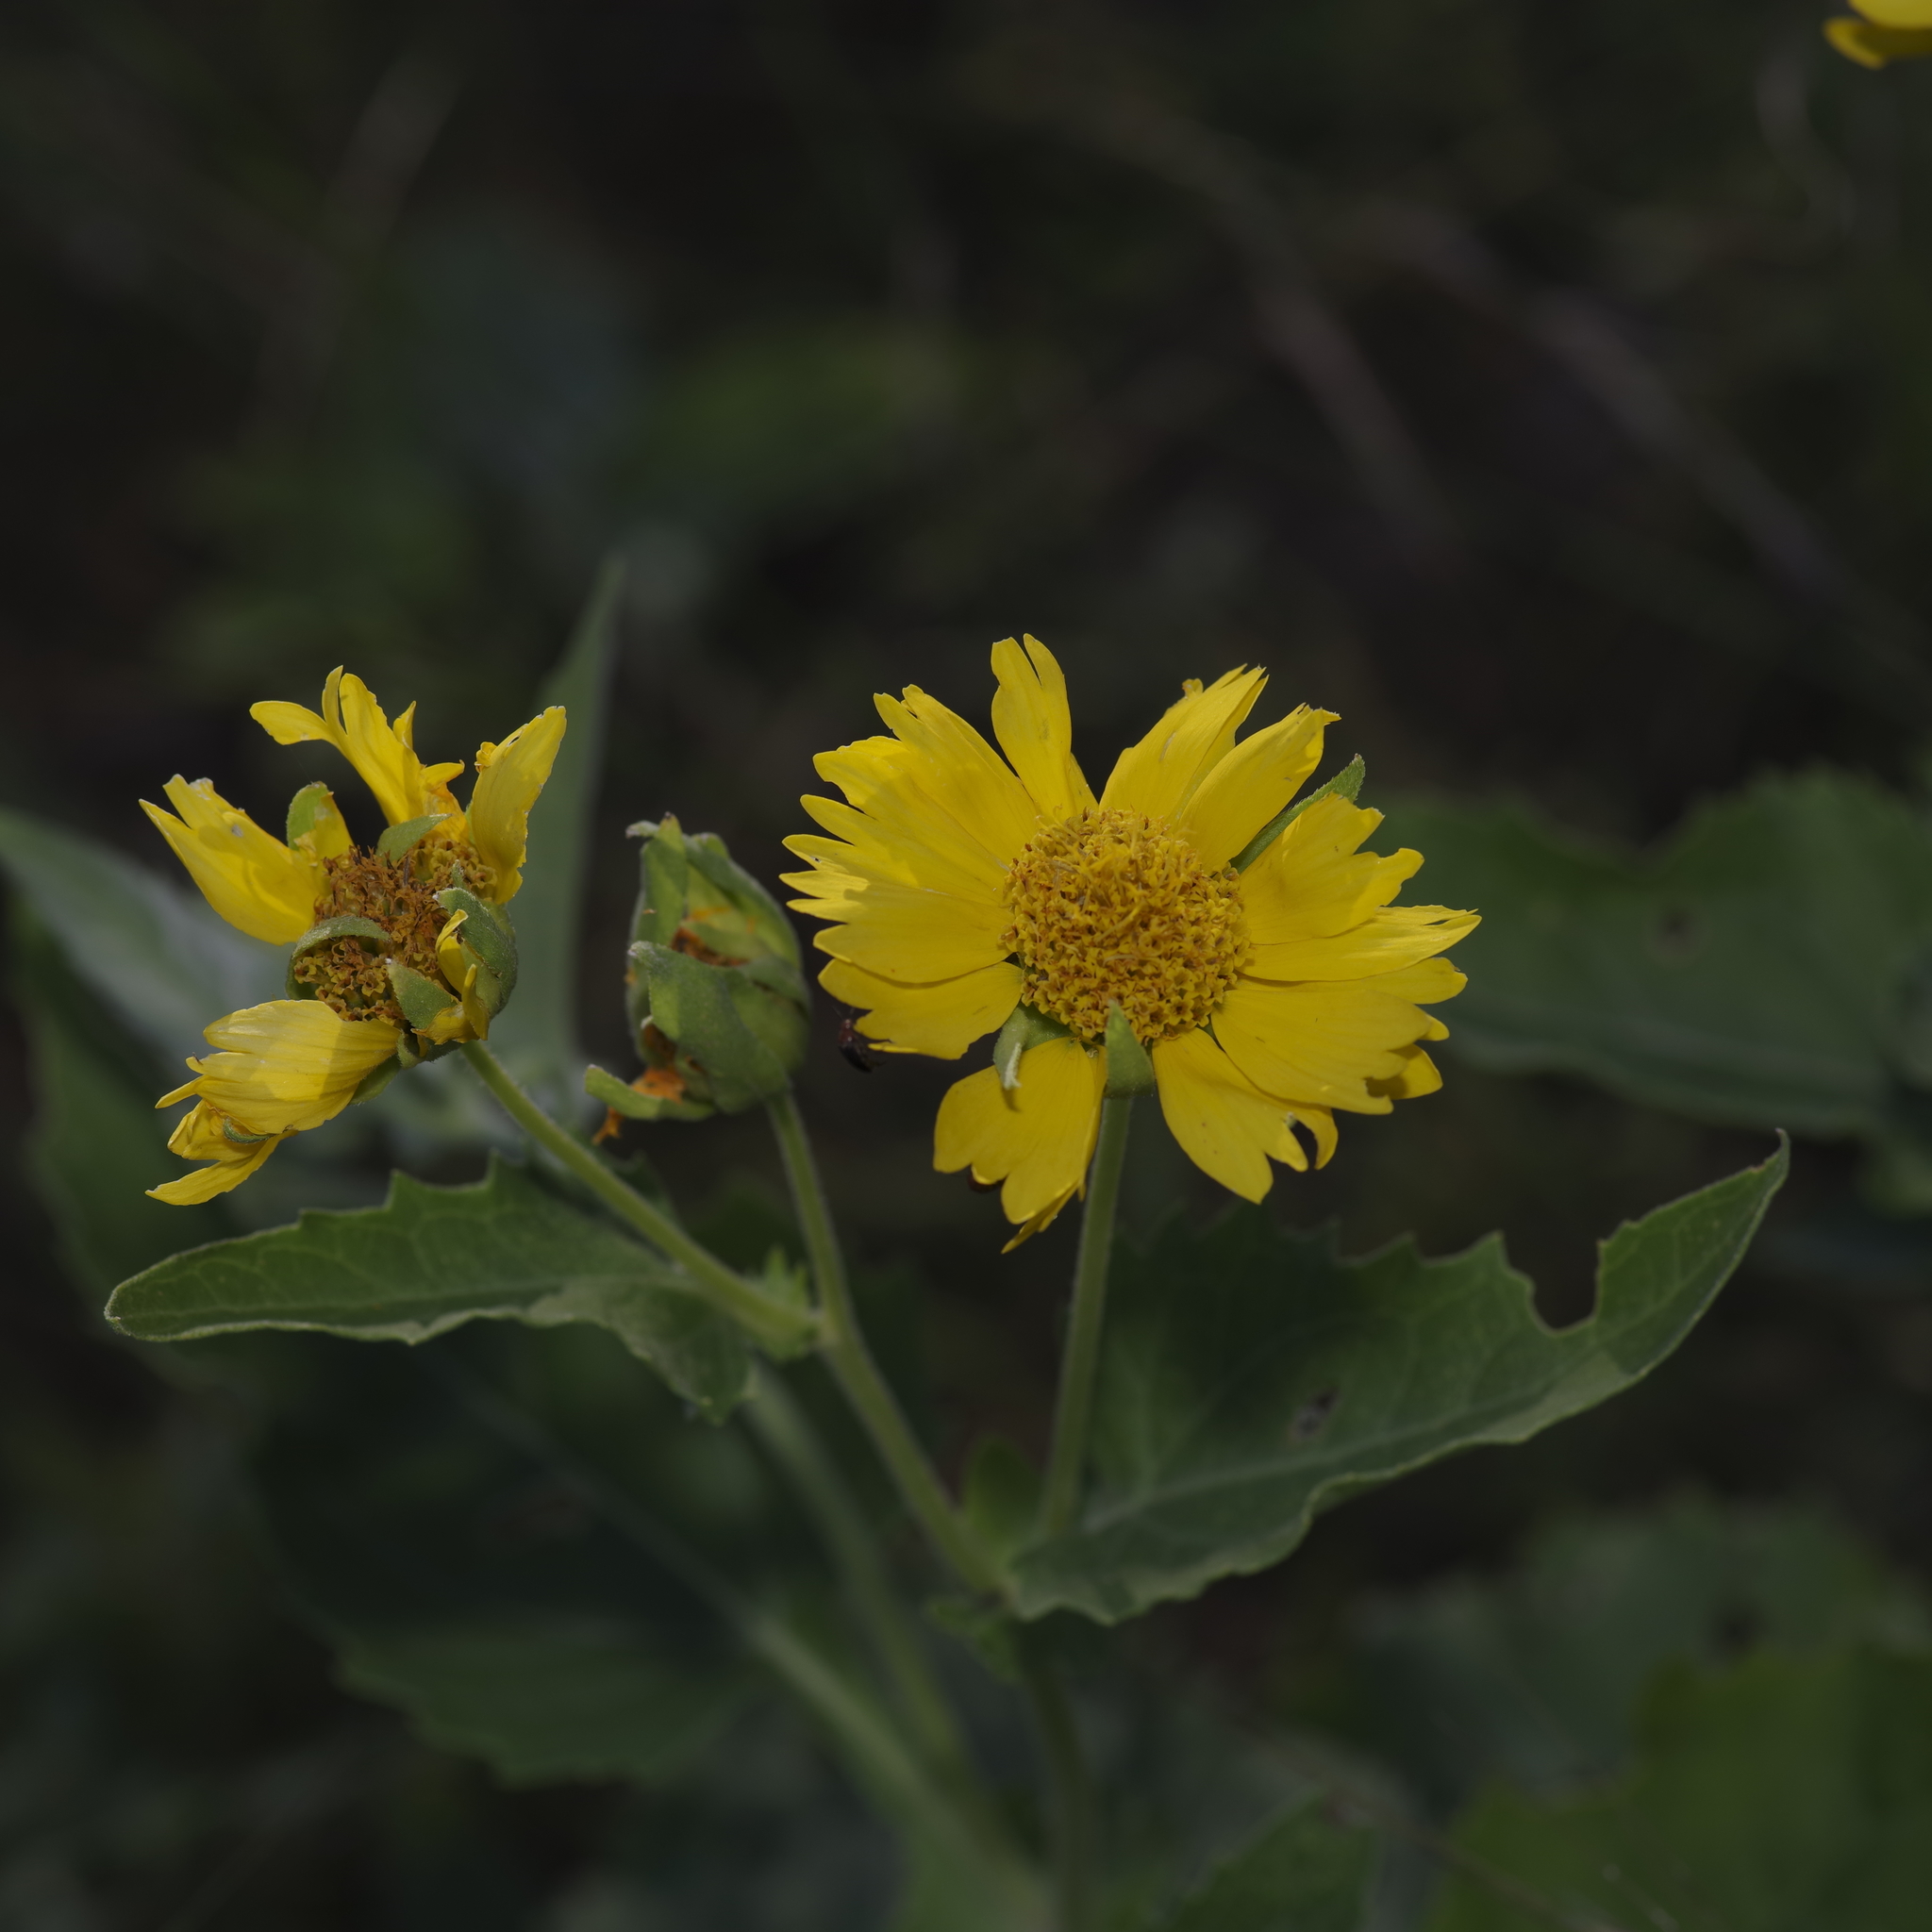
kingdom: Plantae
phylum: Tracheophyta
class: Magnoliopsida
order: Asterales
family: Asteraceae
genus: Verbesina
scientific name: Verbesina encelioides
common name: Golden crownbeard
